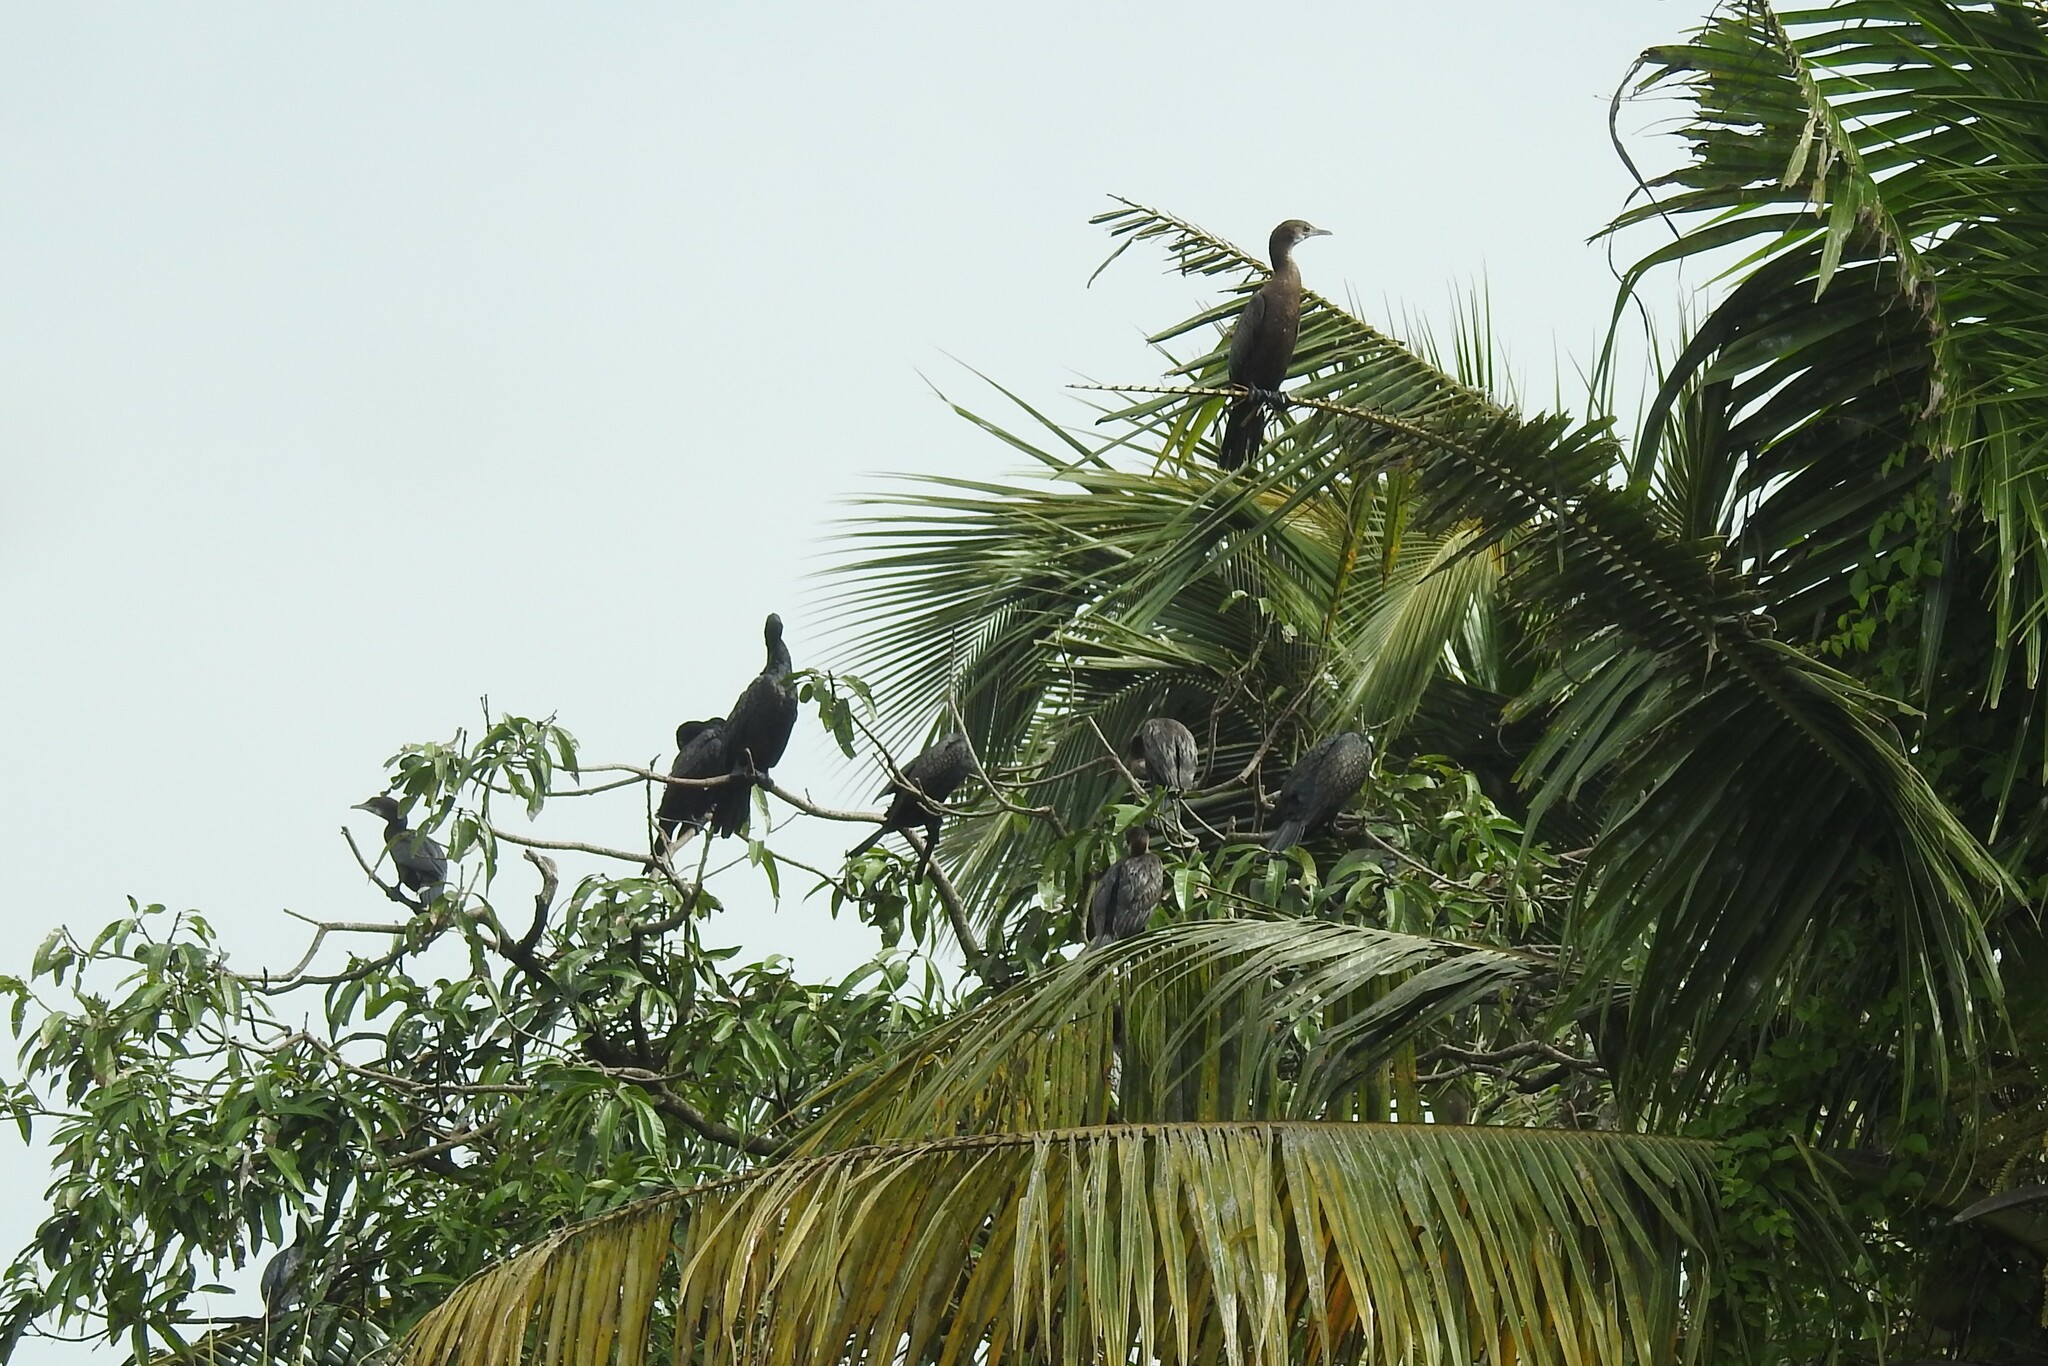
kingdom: Animalia
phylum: Chordata
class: Aves
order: Suliformes
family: Phalacrocoracidae
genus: Microcarbo
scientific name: Microcarbo niger
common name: Little cormorant
